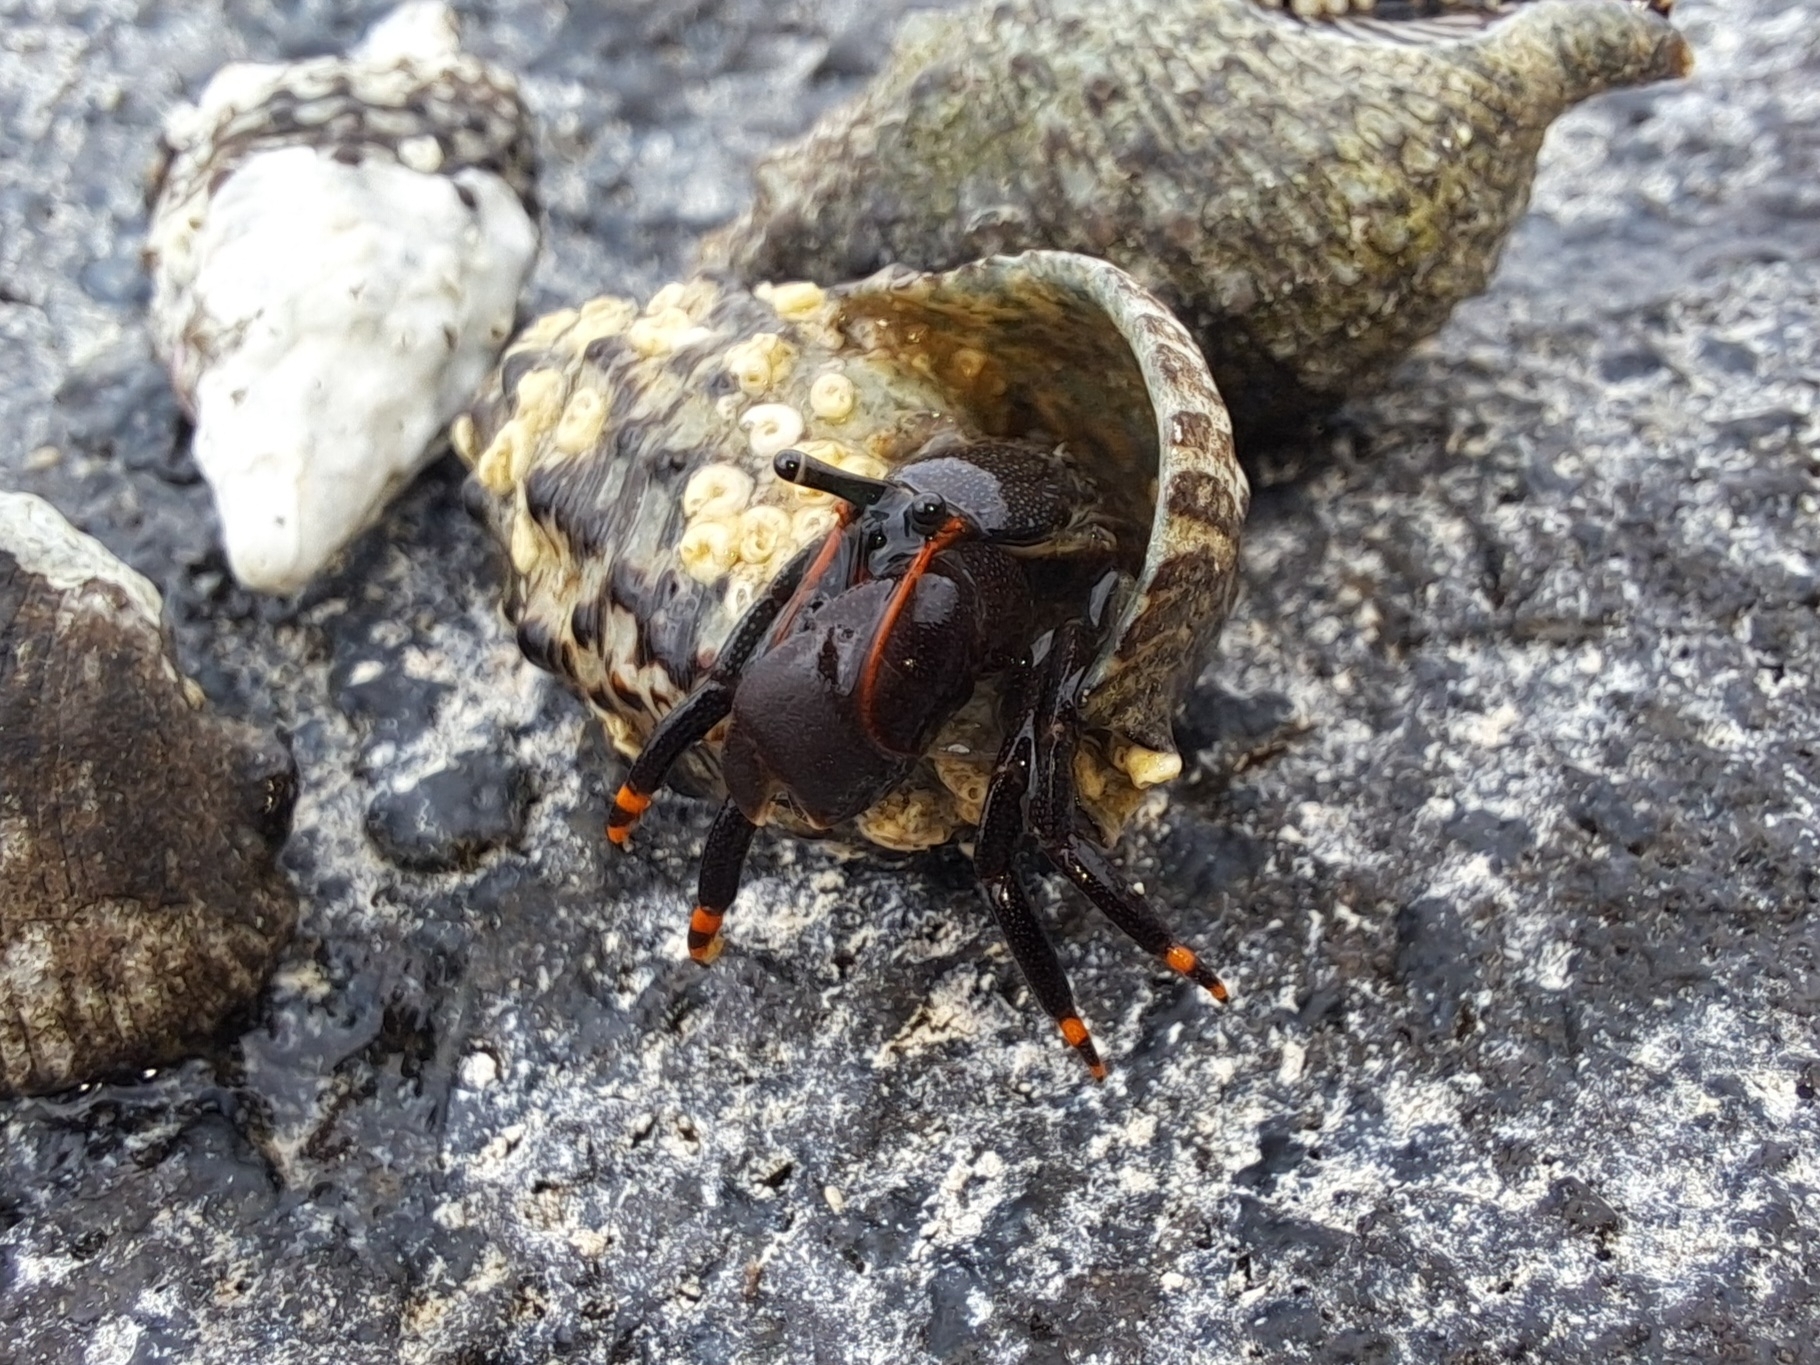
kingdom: Animalia
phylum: Arthropoda
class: Malacostraca
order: Decapoda
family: Diogenidae
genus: Calcinus
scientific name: Calcinus explorator
